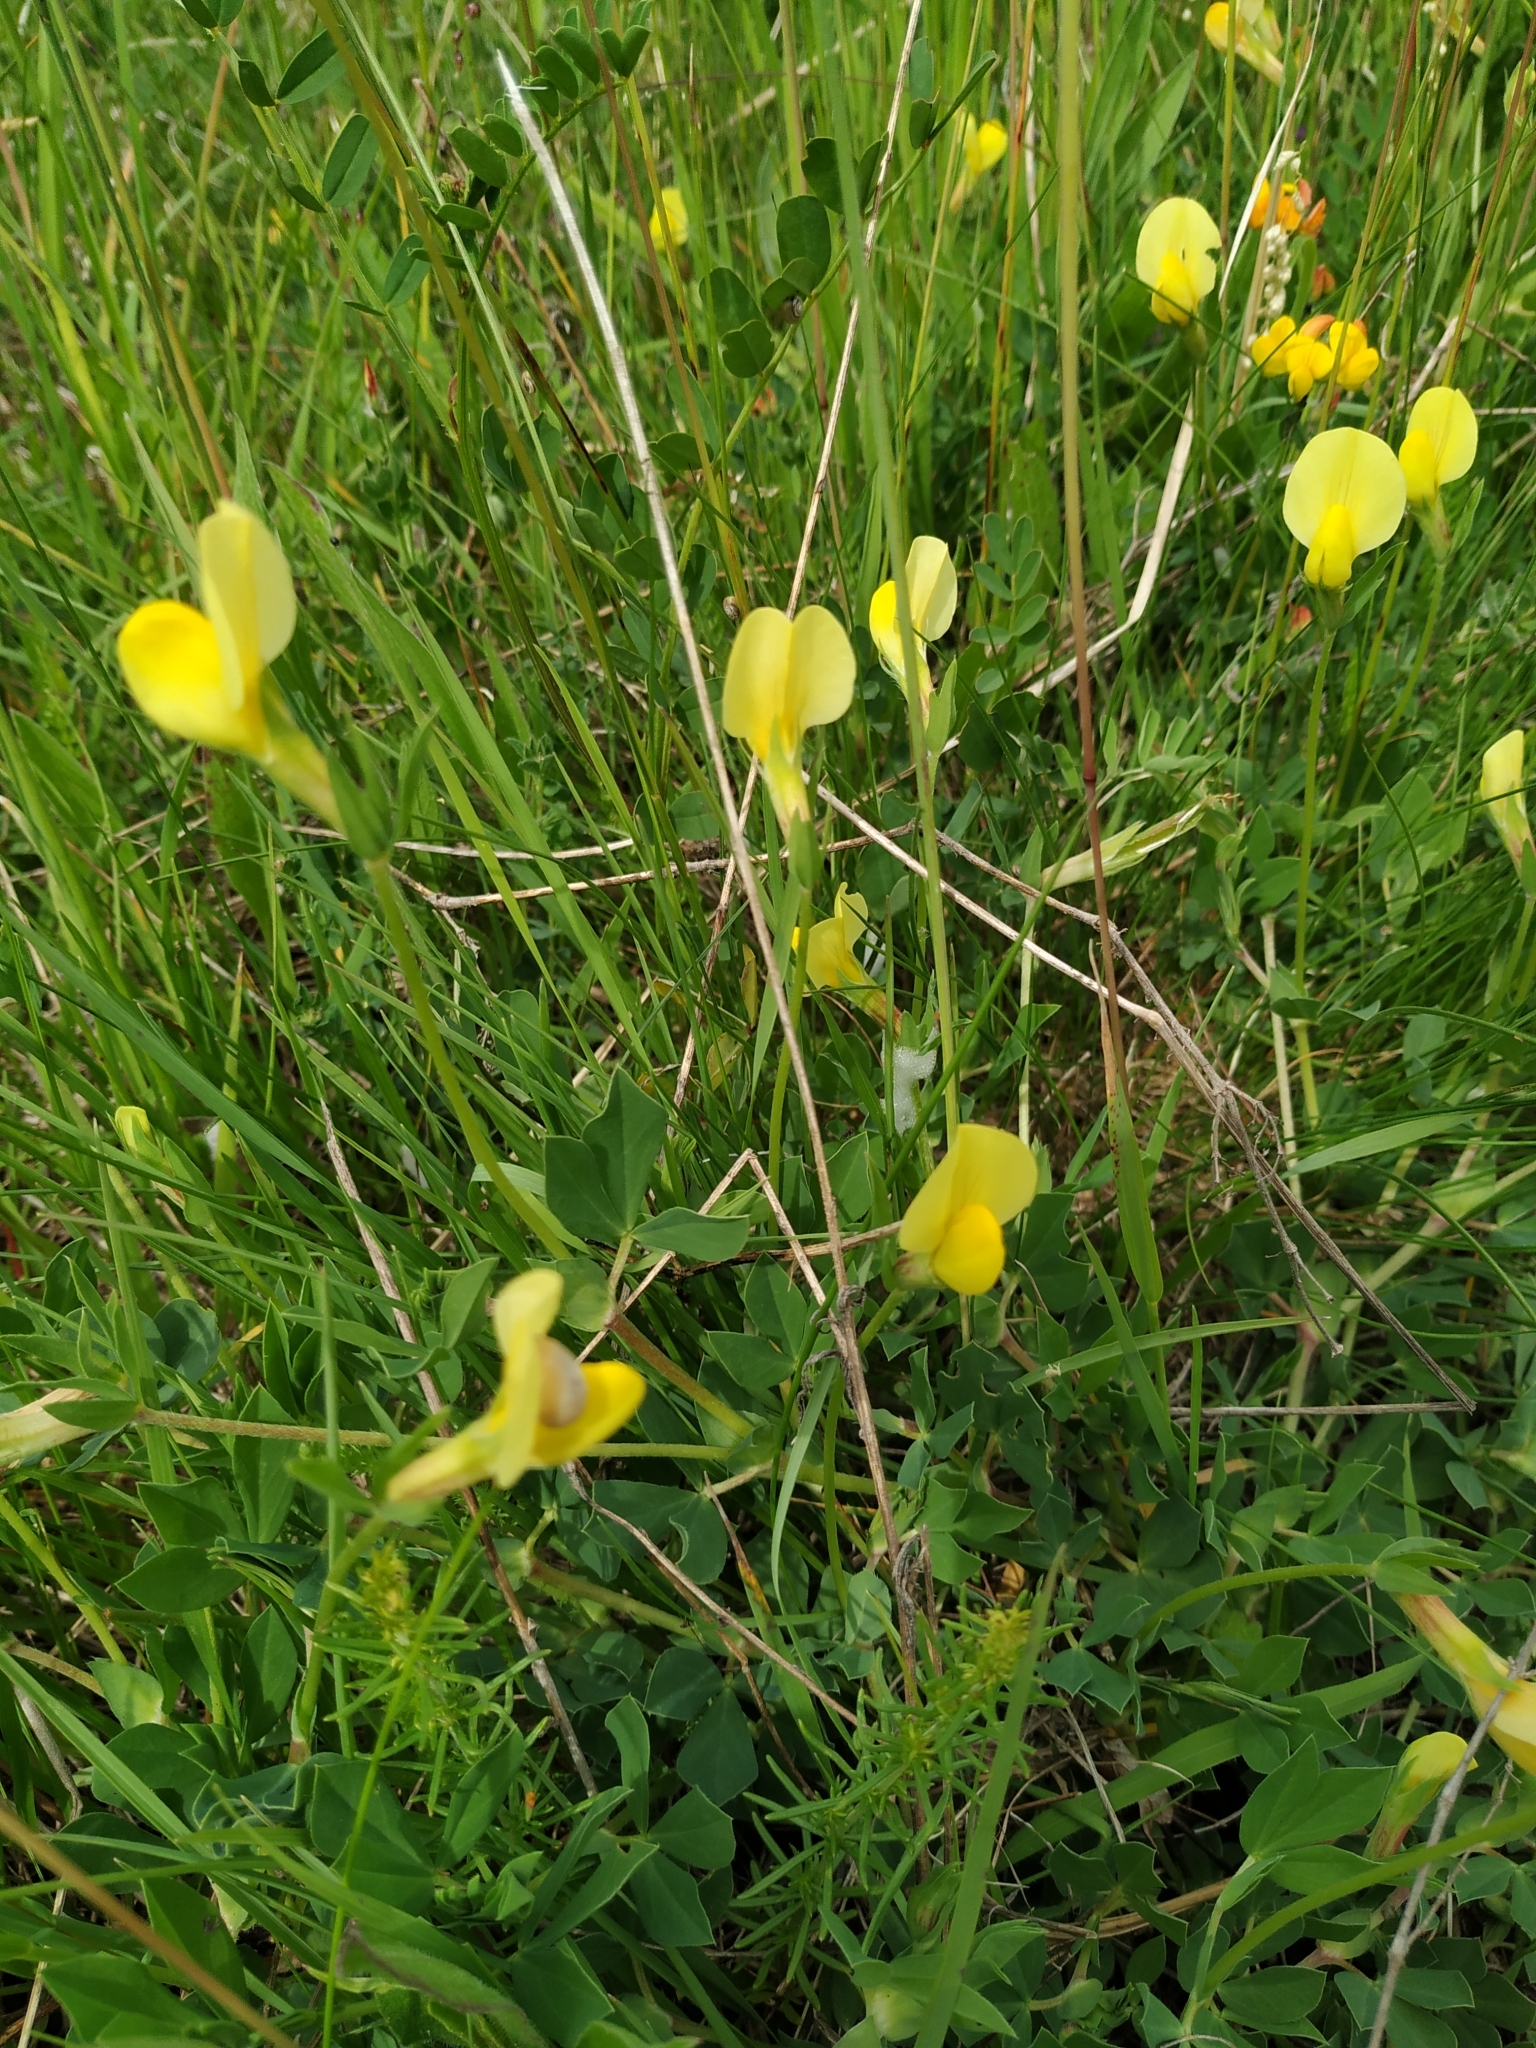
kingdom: Plantae
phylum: Tracheophyta
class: Magnoliopsida
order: Fabales
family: Fabaceae
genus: Lotus
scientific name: Lotus maritimus
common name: Dragon's-teeth
